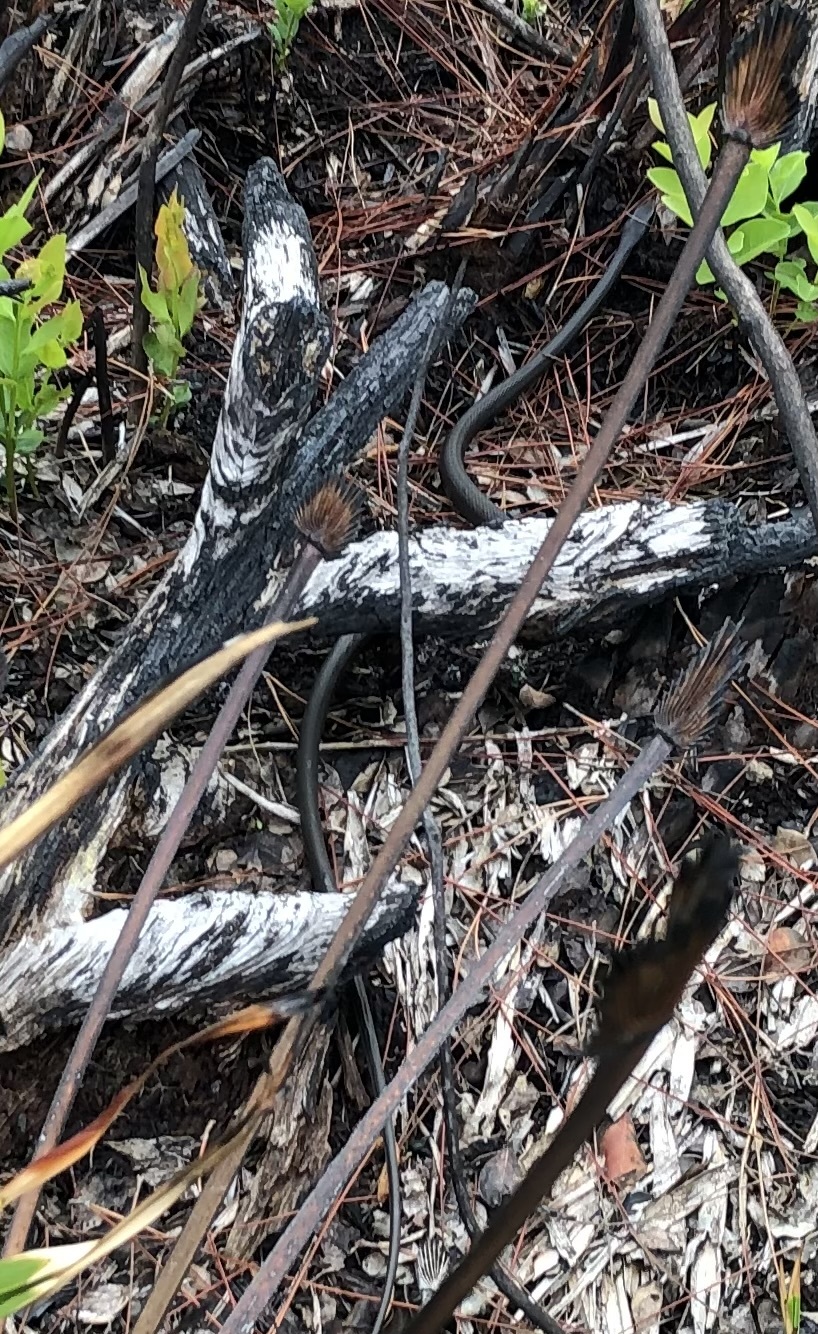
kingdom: Animalia
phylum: Chordata
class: Squamata
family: Colubridae
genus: Coluber
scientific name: Coluber constrictor
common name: Eastern racer
